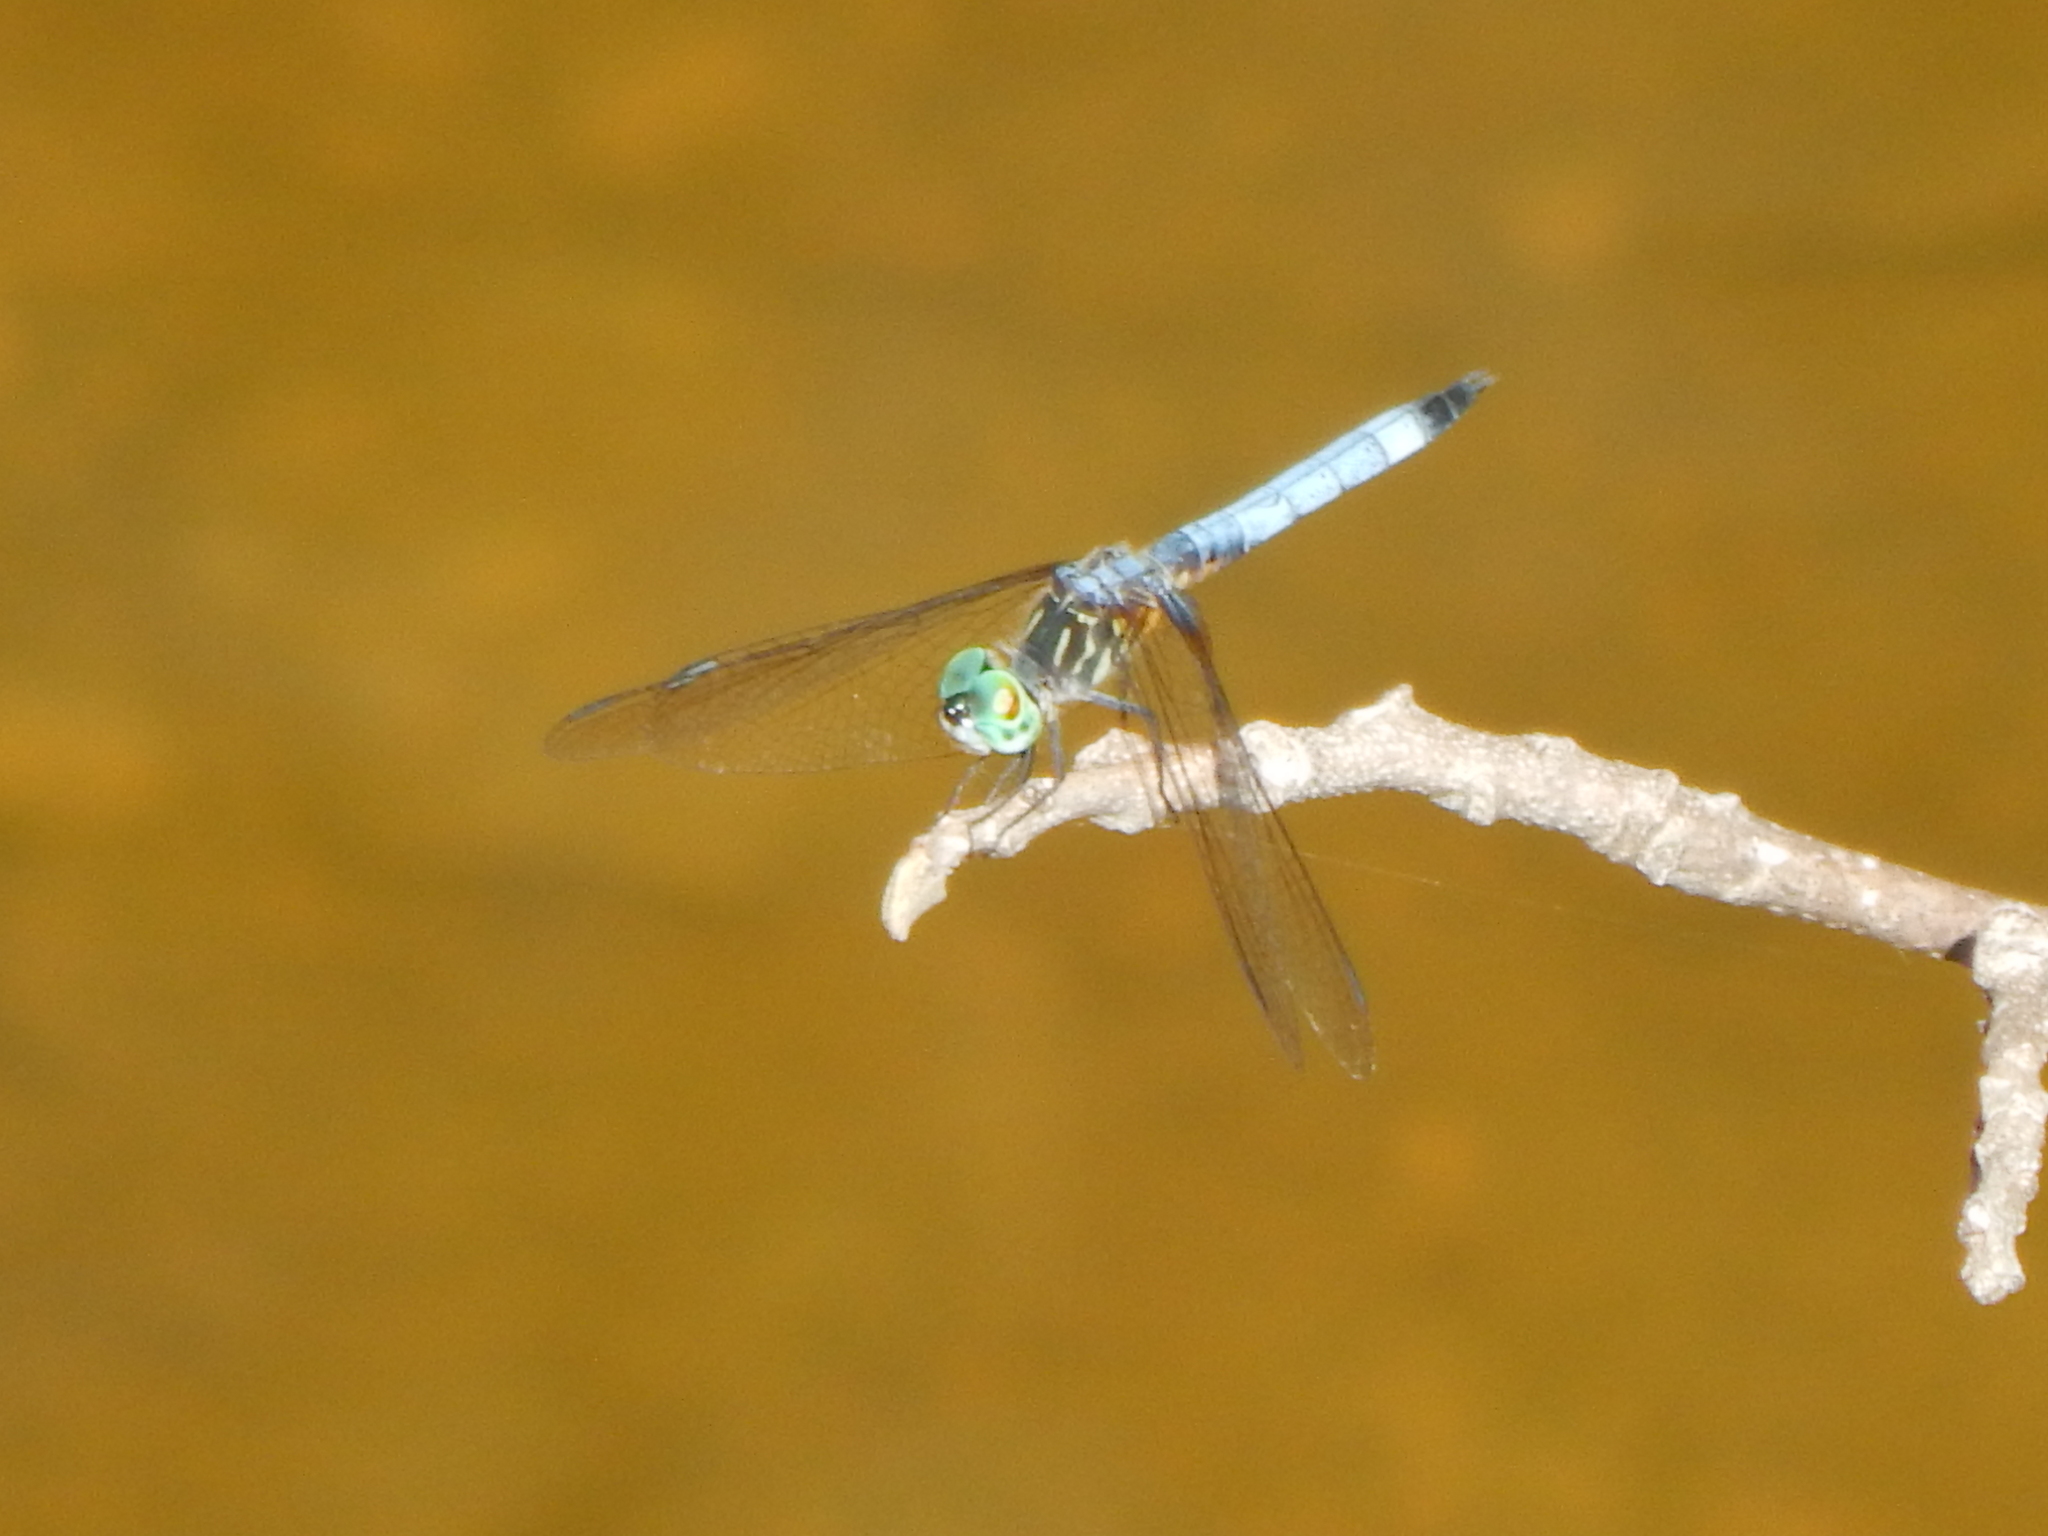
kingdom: Animalia
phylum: Arthropoda
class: Insecta
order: Odonata
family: Libellulidae
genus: Pachydiplax
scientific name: Pachydiplax longipennis
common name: Blue dasher
